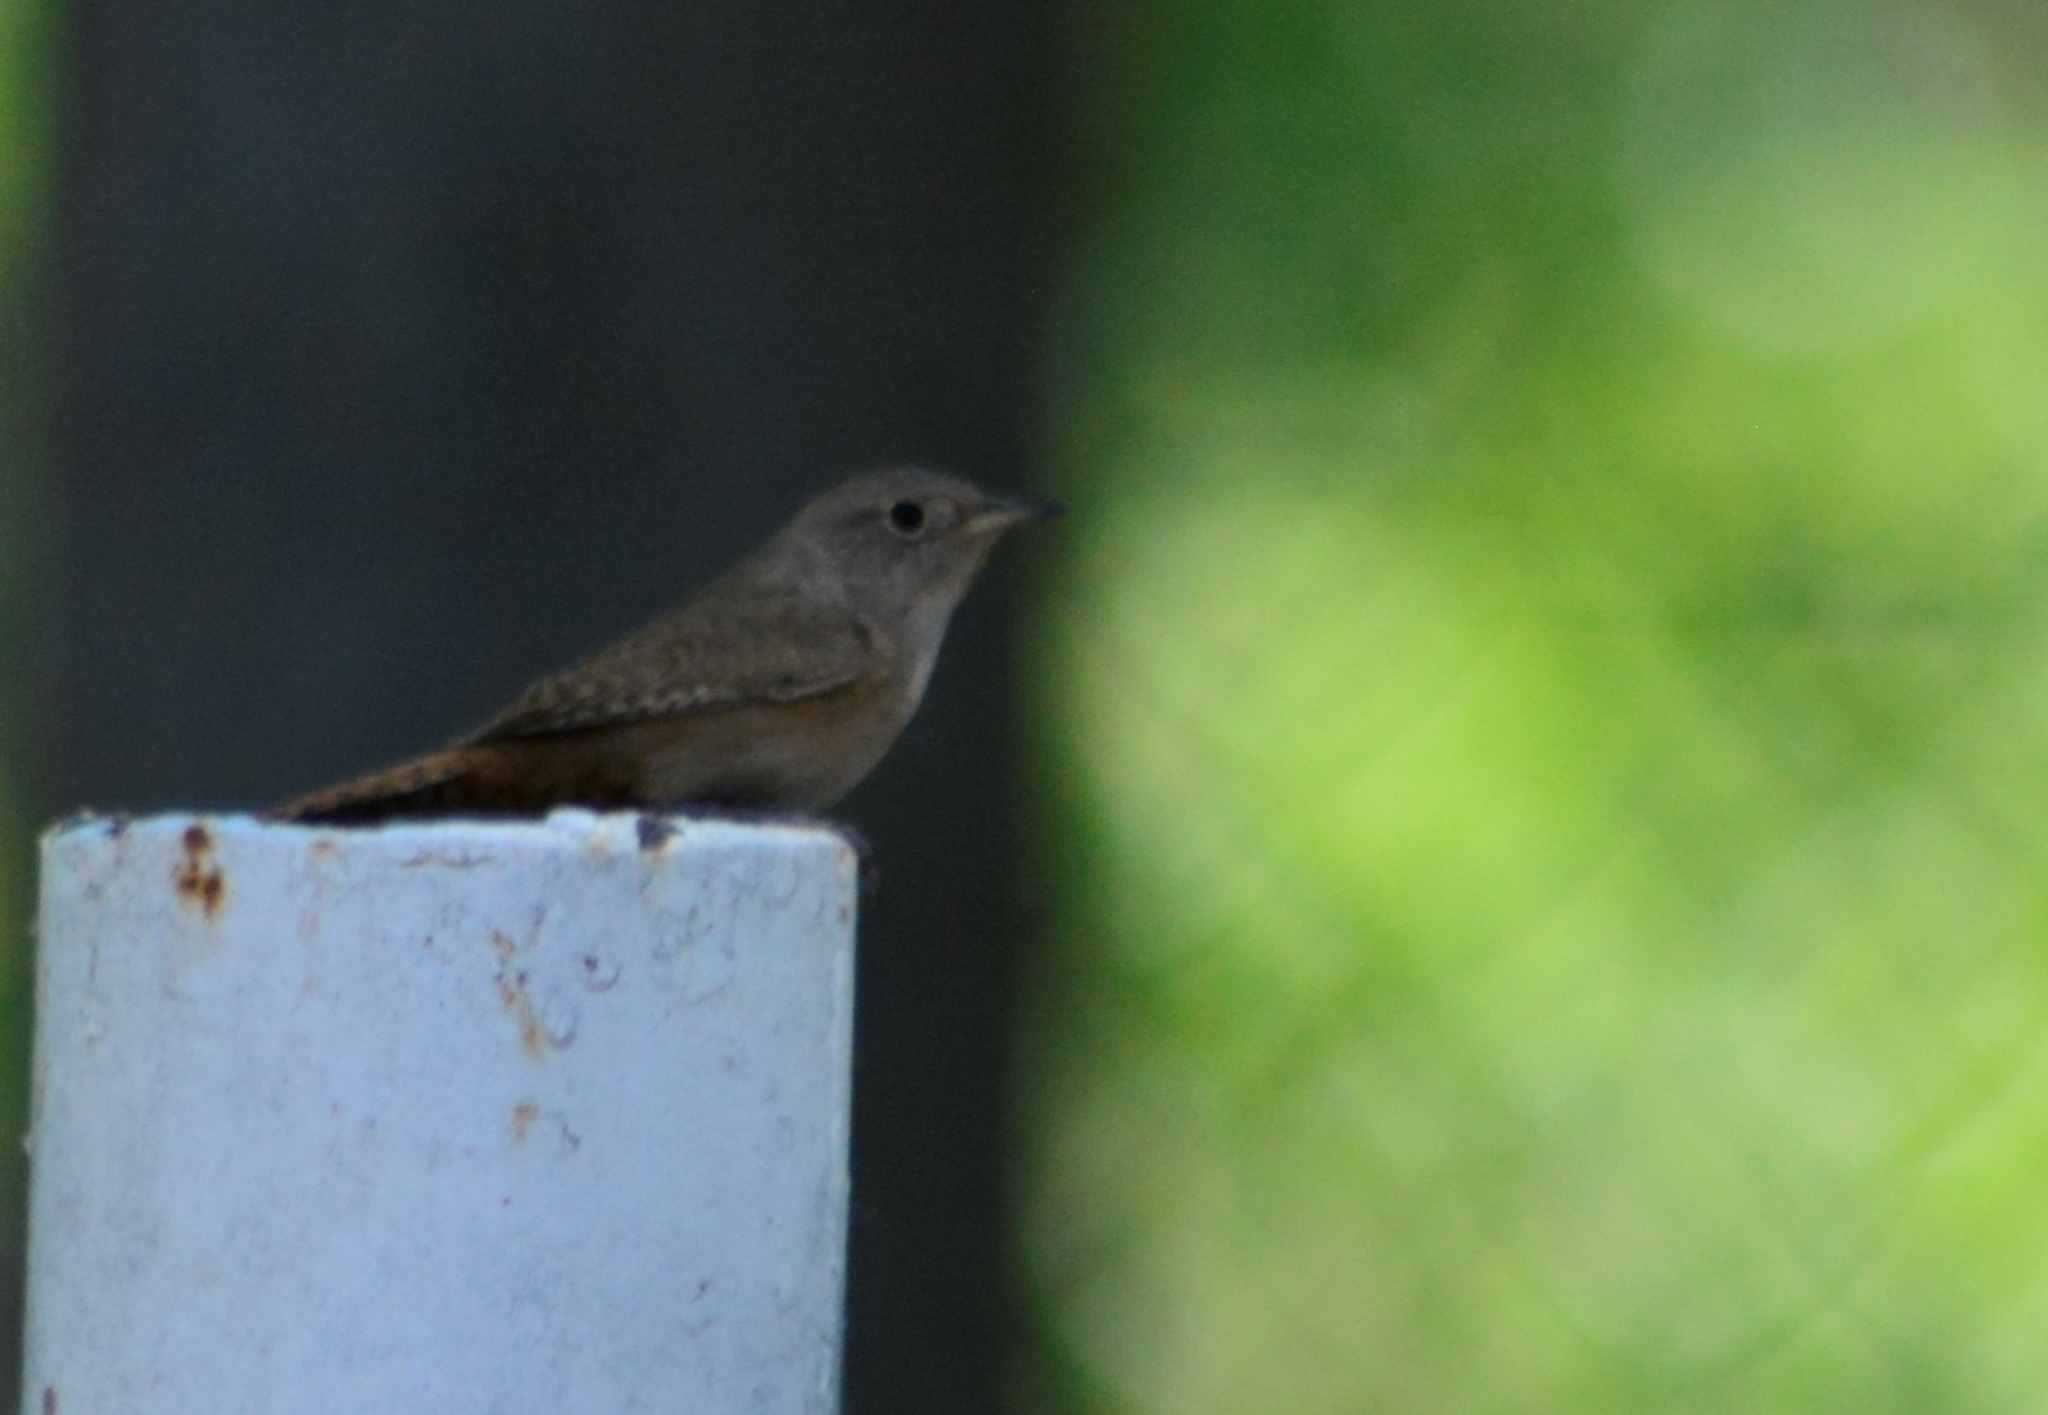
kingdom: Animalia
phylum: Chordata
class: Aves
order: Passeriformes
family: Troglodytidae
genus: Troglodytes
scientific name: Troglodytes aedon
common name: House wren
